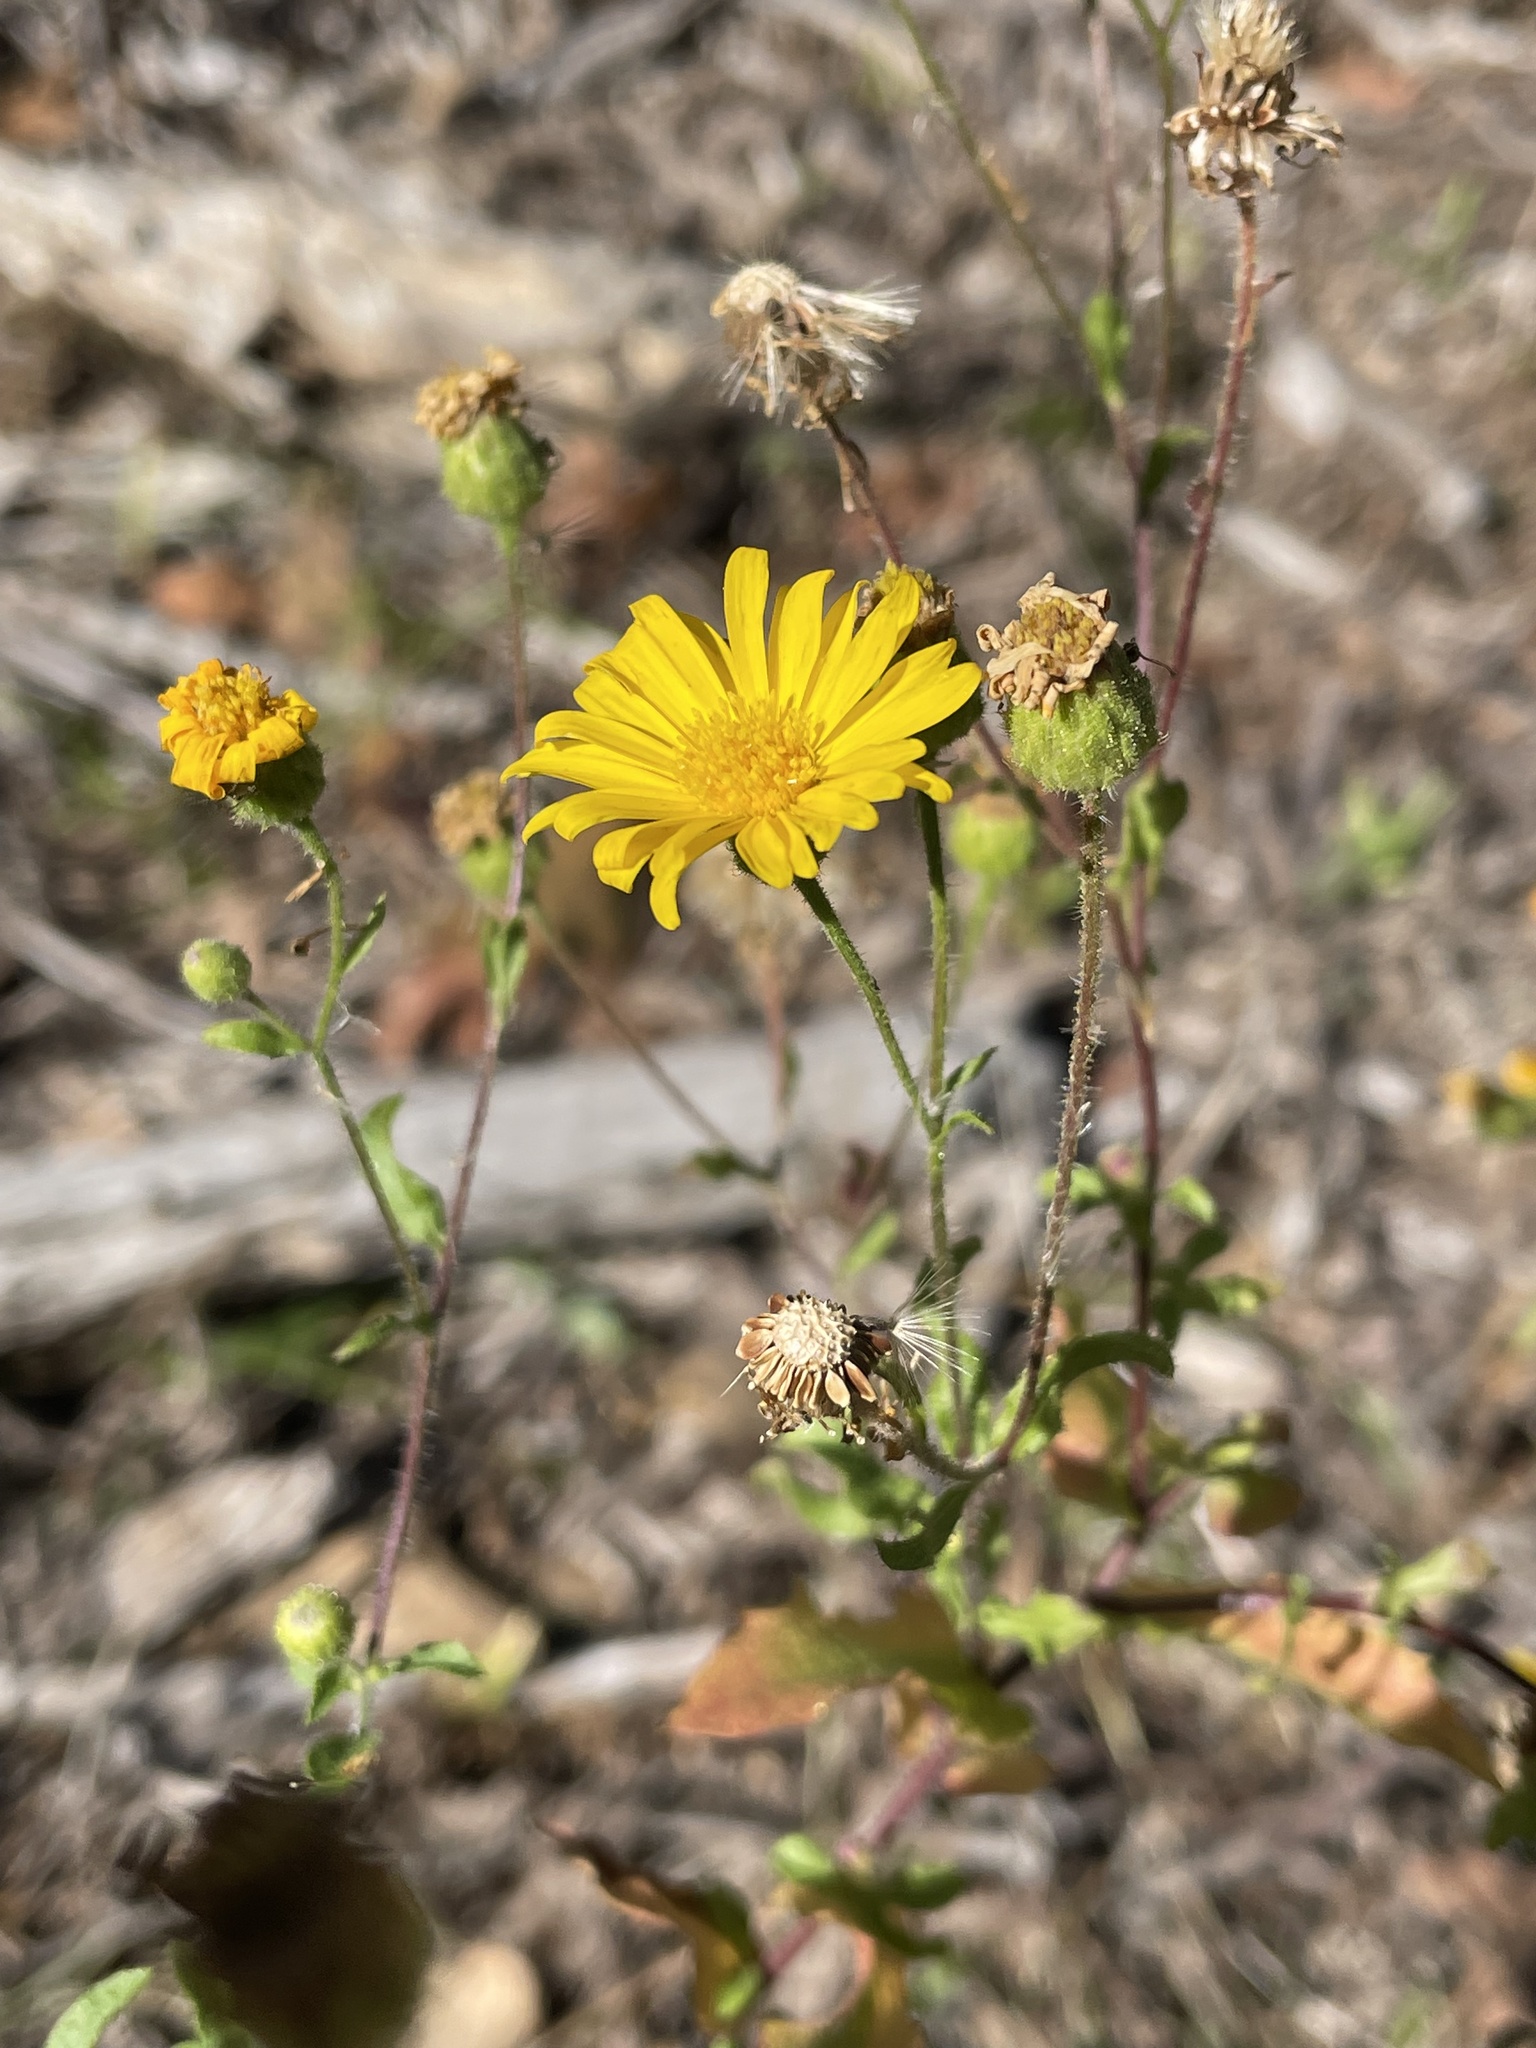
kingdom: Plantae
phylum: Tracheophyta
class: Magnoliopsida
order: Asterales
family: Asteraceae
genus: Heterotheca
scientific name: Heterotheca subaxillaris
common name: Camphorweed
